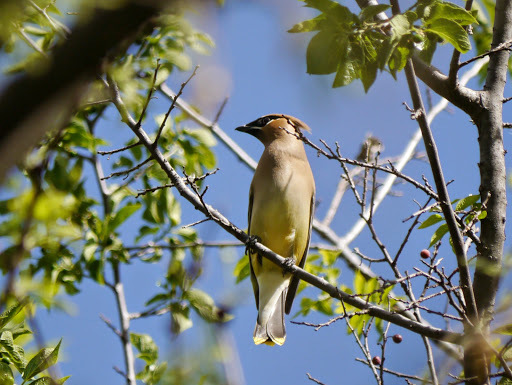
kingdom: Animalia
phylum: Chordata
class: Aves
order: Passeriformes
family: Bombycillidae
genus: Bombycilla
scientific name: Bombycilla cedrorum
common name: Cedar waxwing
